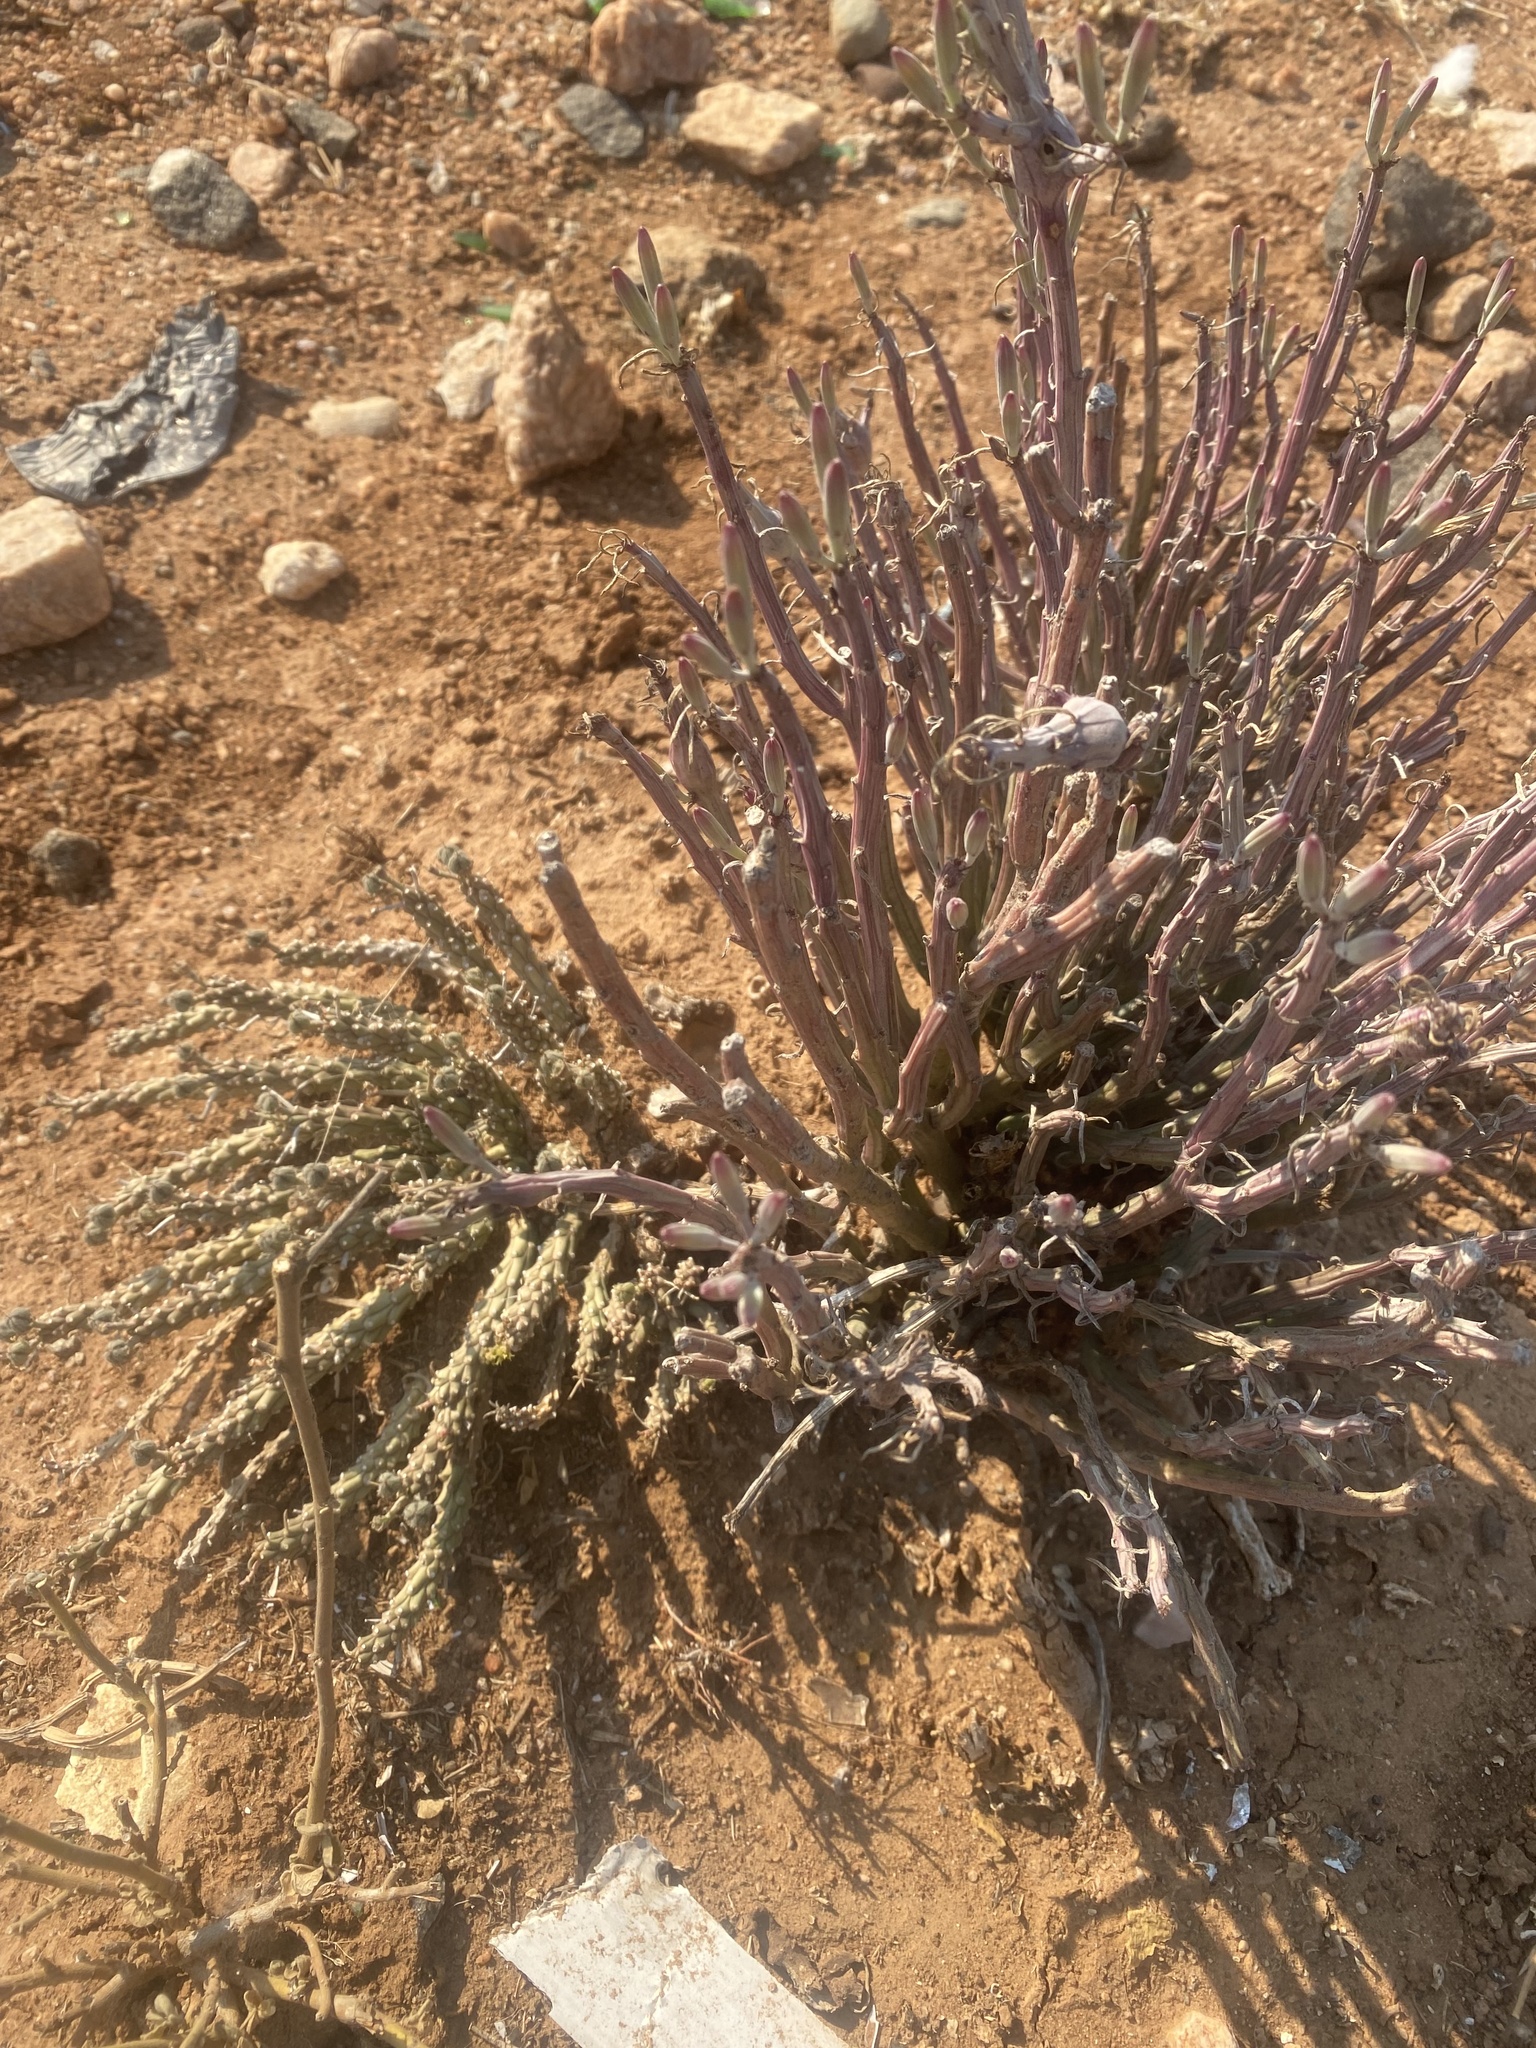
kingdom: Plantae
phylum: Tracheophyta
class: Magnoliopsida
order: Asterales
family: Asteraceae
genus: Curio
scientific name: Curio avasimontanus
